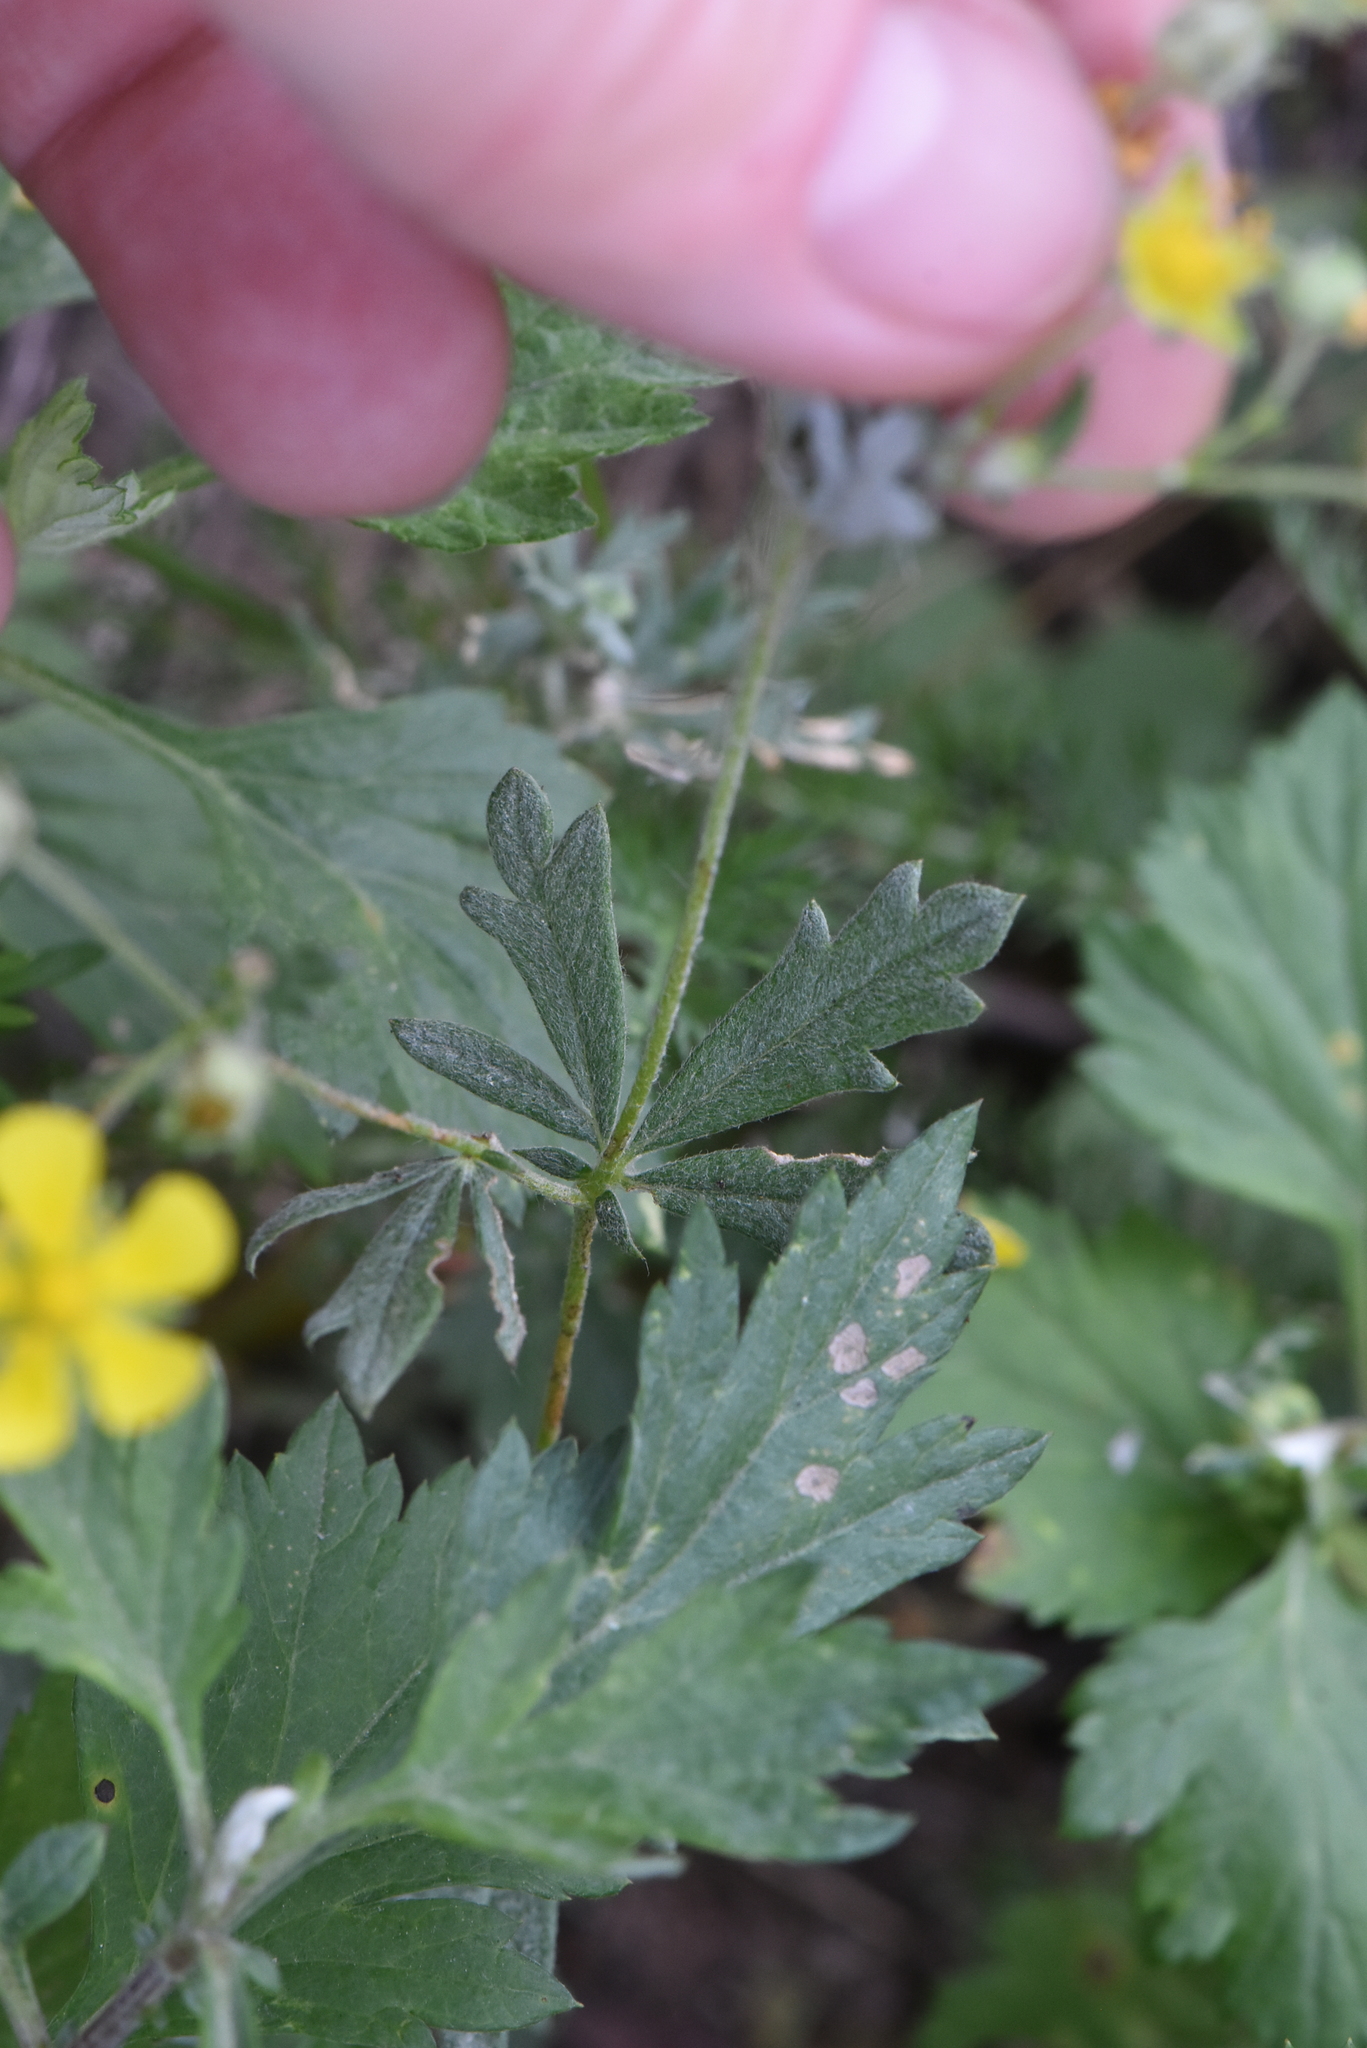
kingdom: Plantae
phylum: Tracheophyta
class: Magnoliopsida
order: Rosales
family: Rosaceae
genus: Potentilla
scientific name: Potentilla argentea
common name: Hoary cinquefoil
